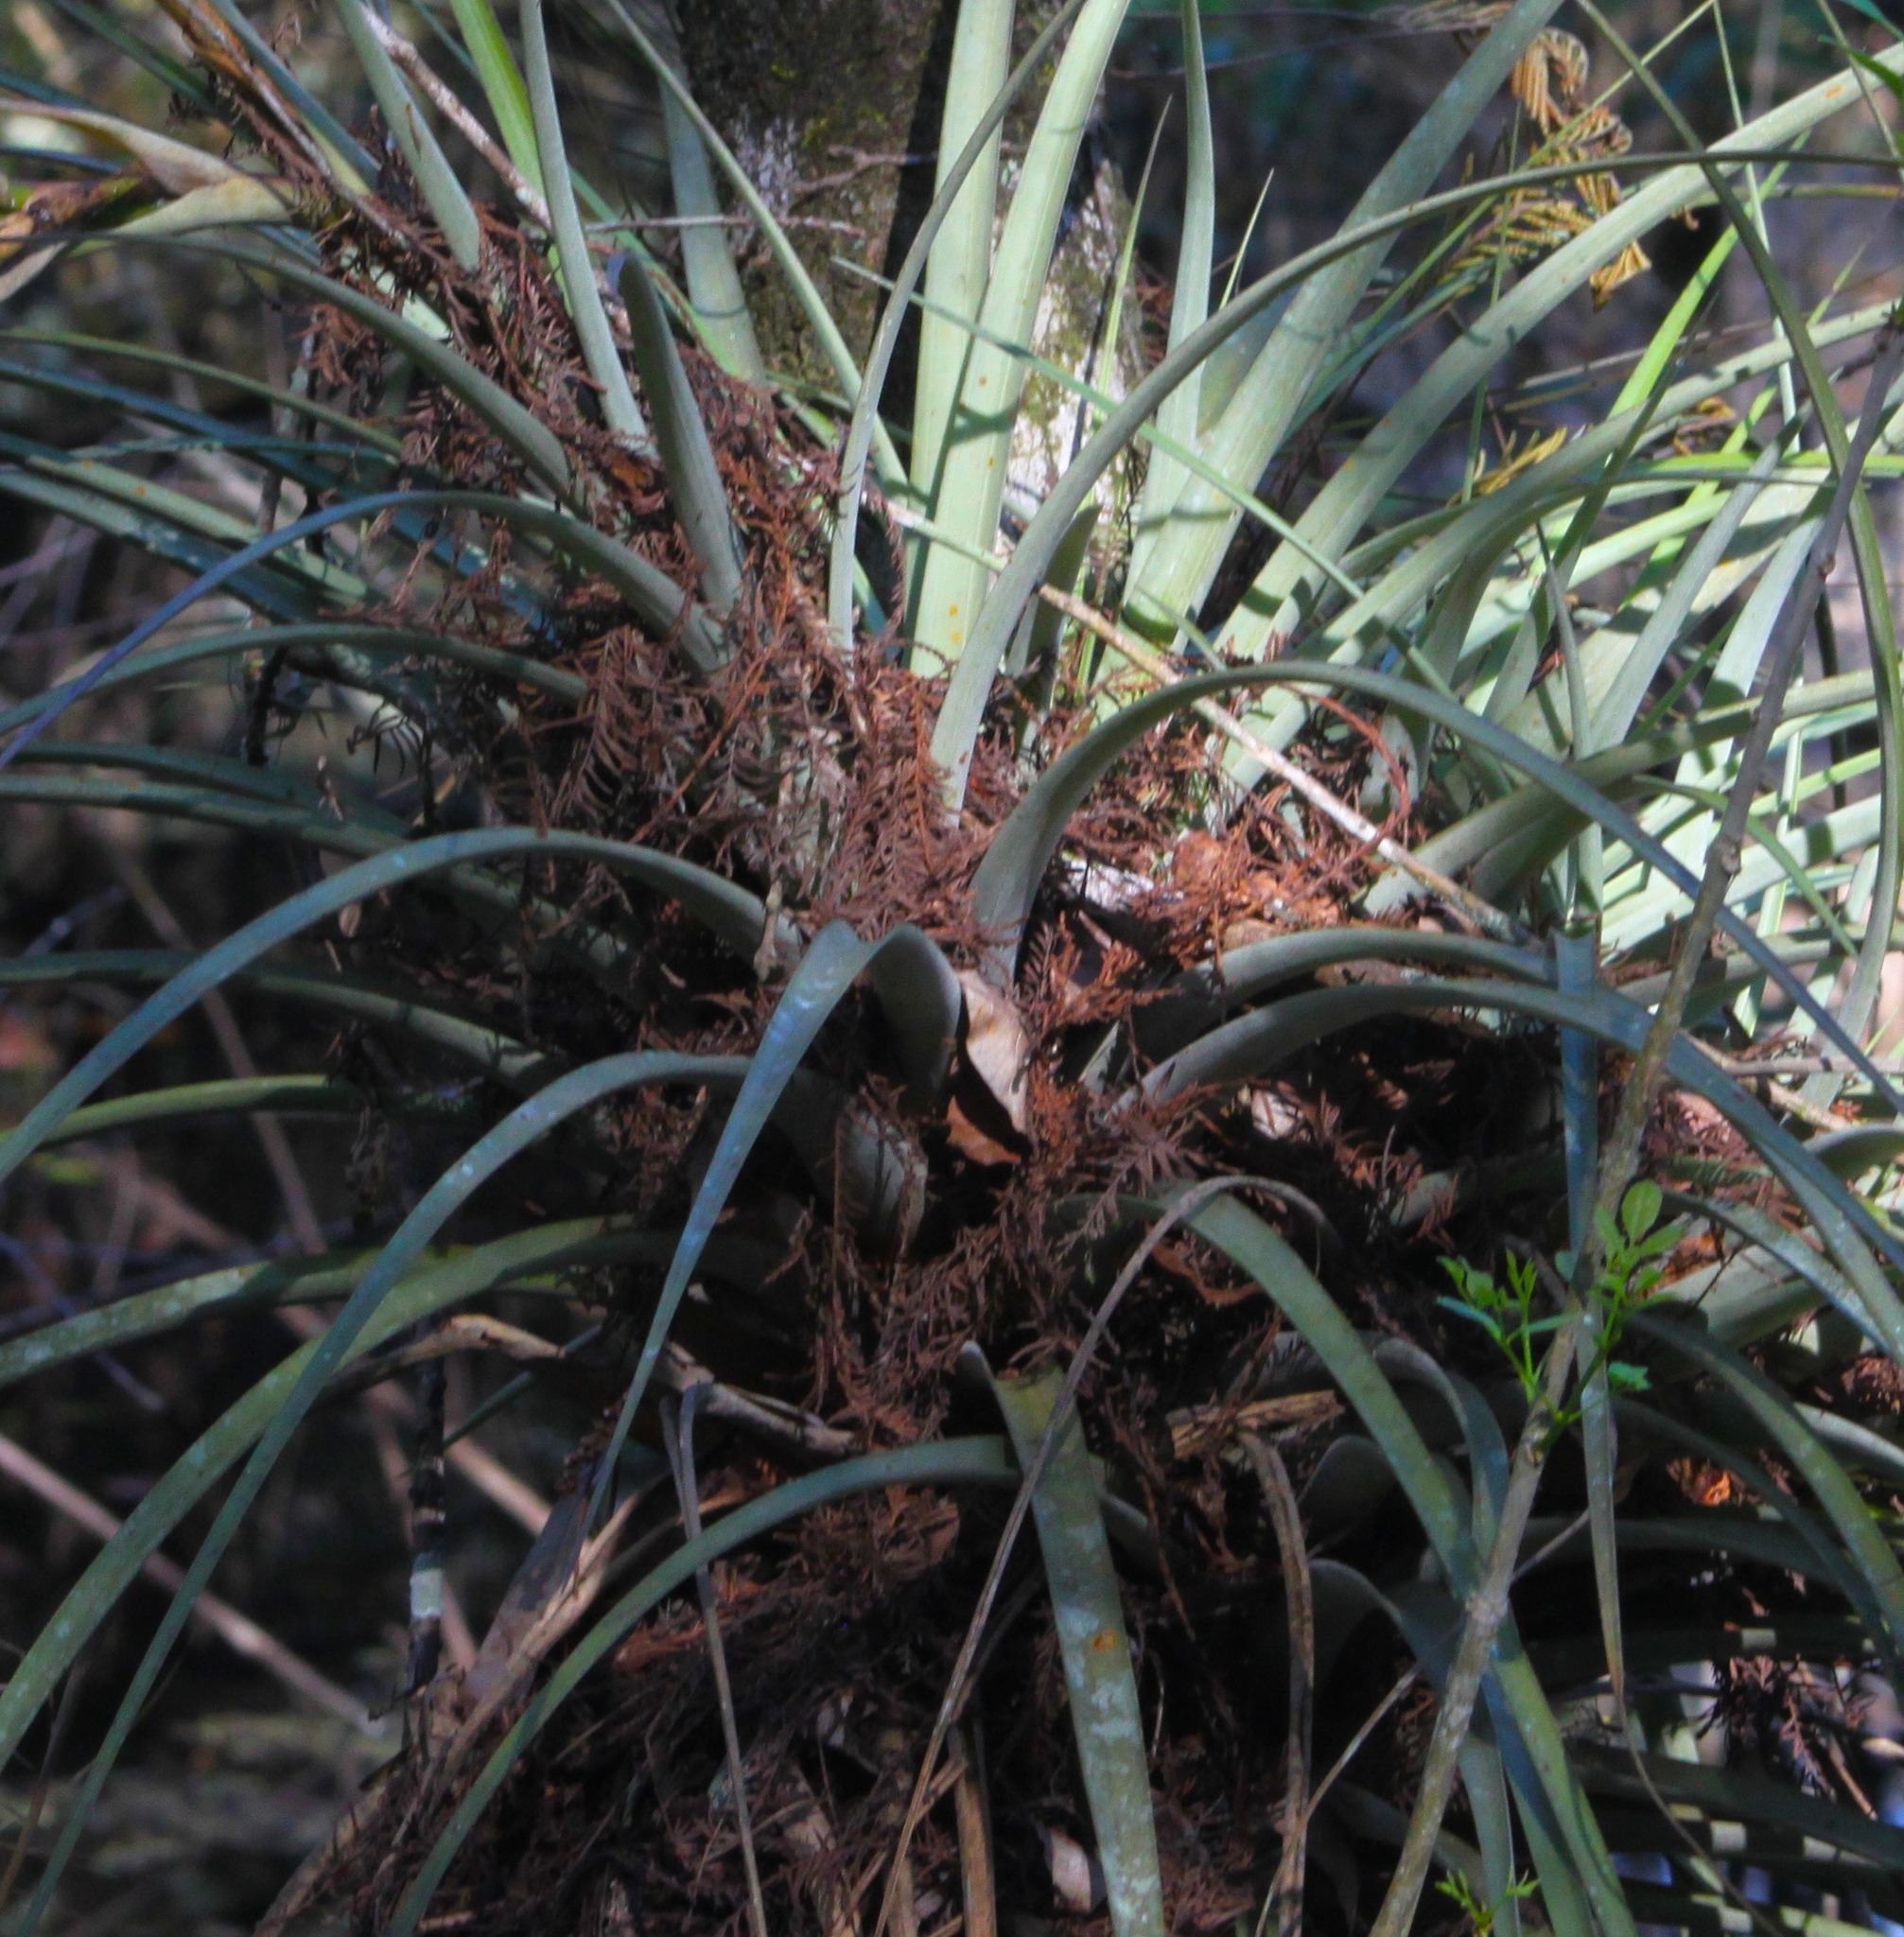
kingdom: Plantae
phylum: Tracheophyta
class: Liliopsida
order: Poales
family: Bromeliaceae
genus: Tillandsia
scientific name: Tillandsia fasciculata
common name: Giant airplant
